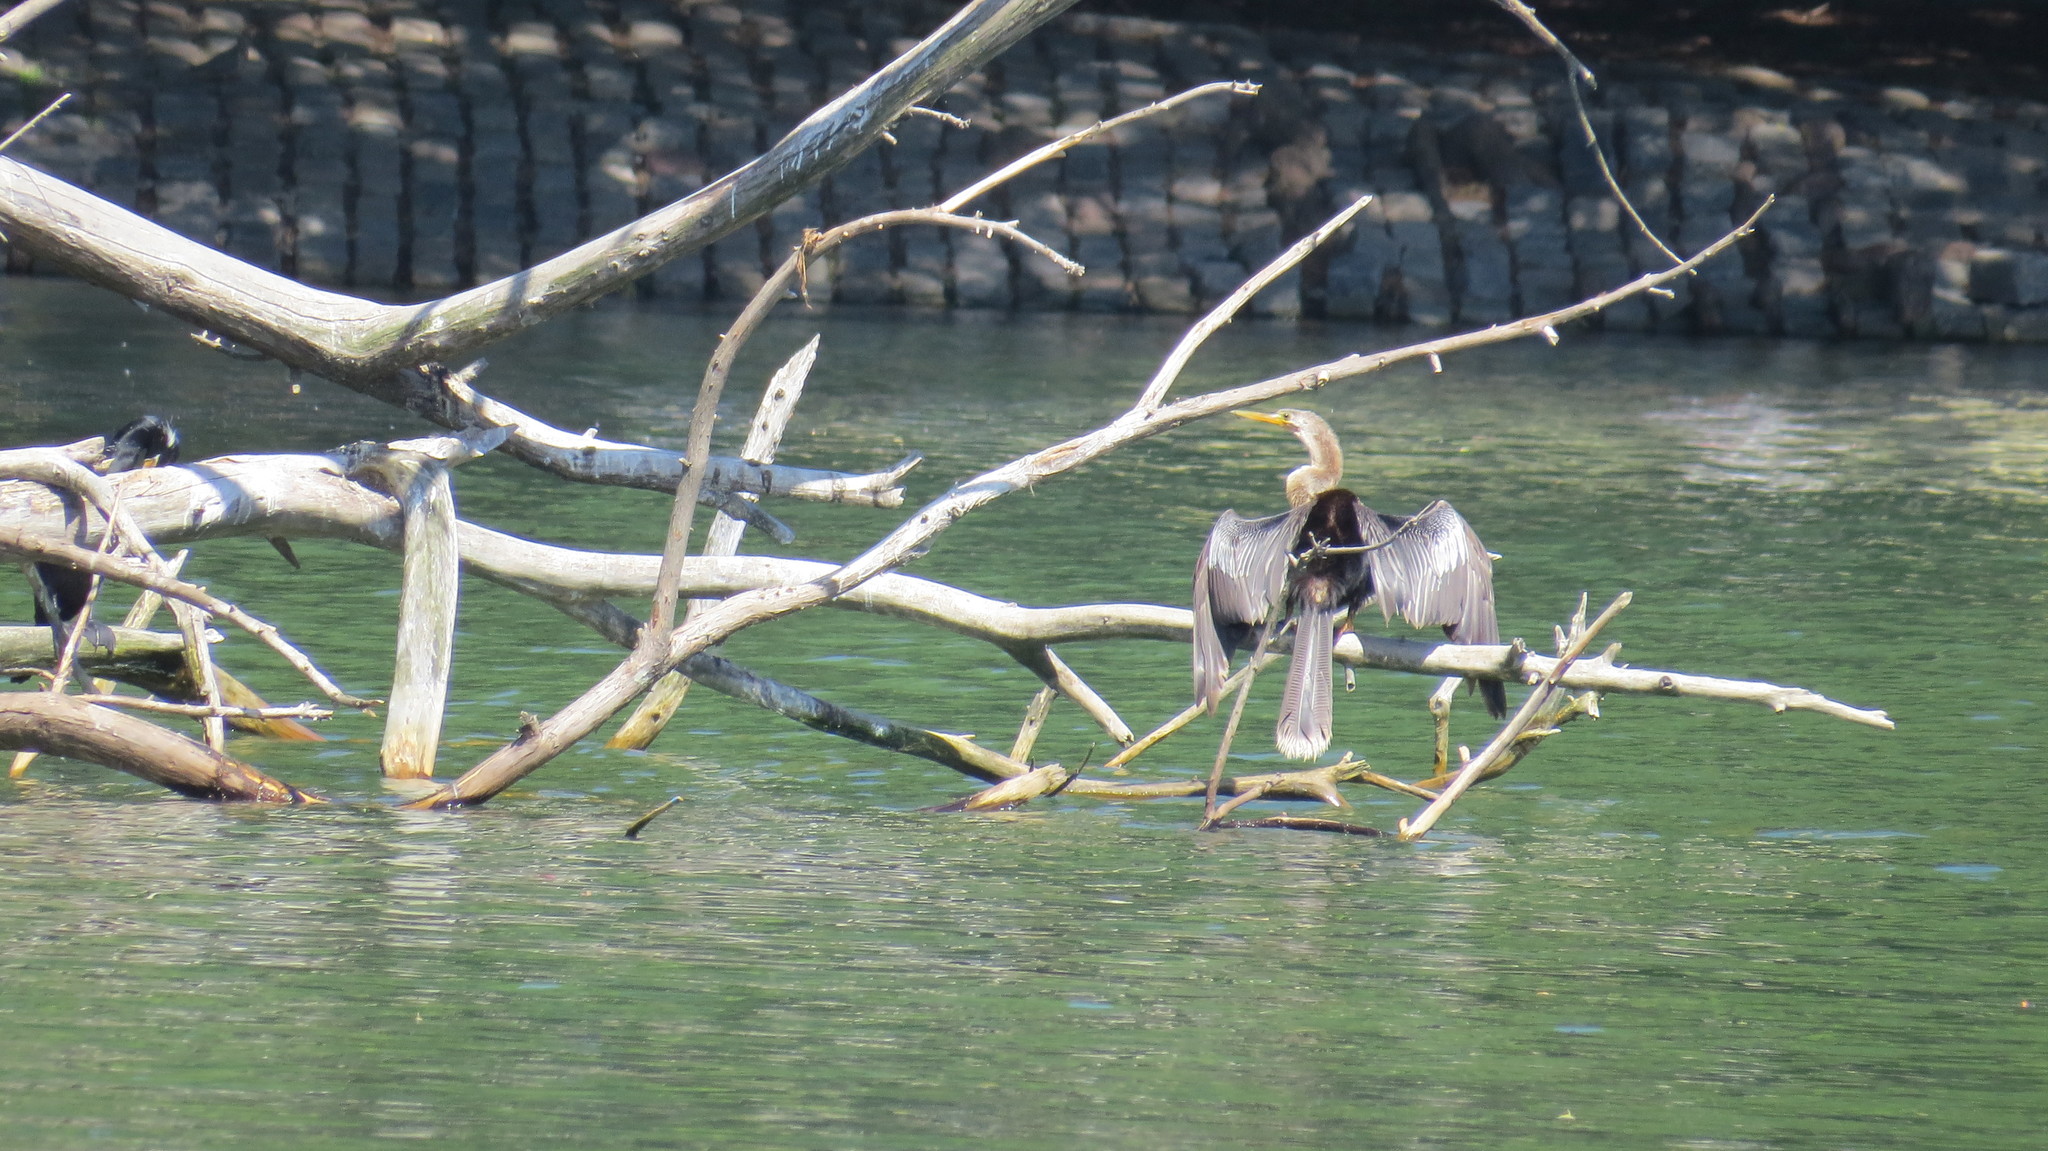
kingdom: Animalia
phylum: Chordata
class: Aves
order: Suliformes
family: Anhingidae
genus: Anhinga
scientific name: Anhinga anhinga
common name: Anhinga
